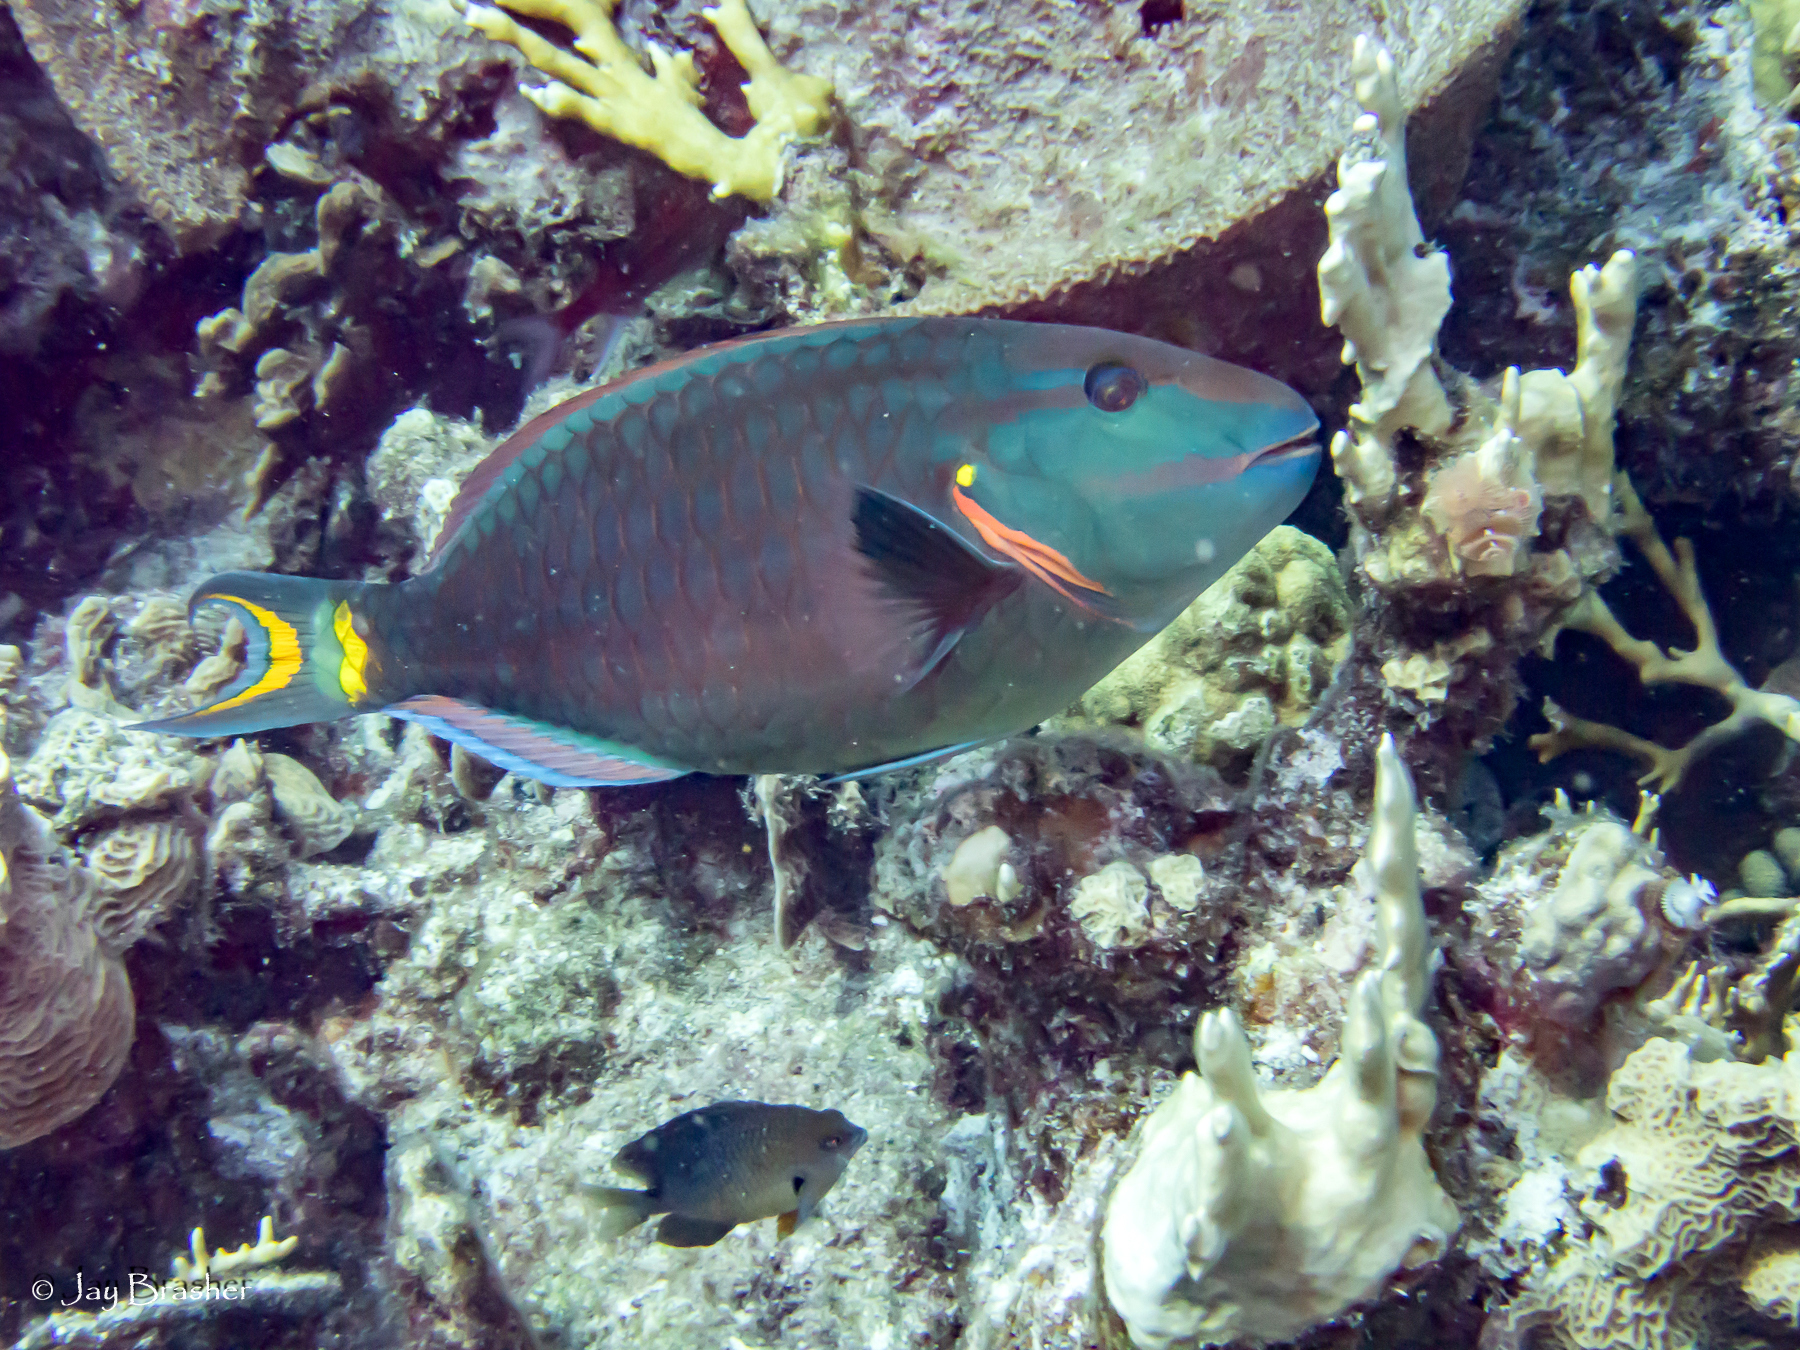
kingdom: Animalia
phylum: Chordata
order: Perciformes
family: Scaridae
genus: Sparisoma
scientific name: Sparisoma viride
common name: Stoplight parrotfish
